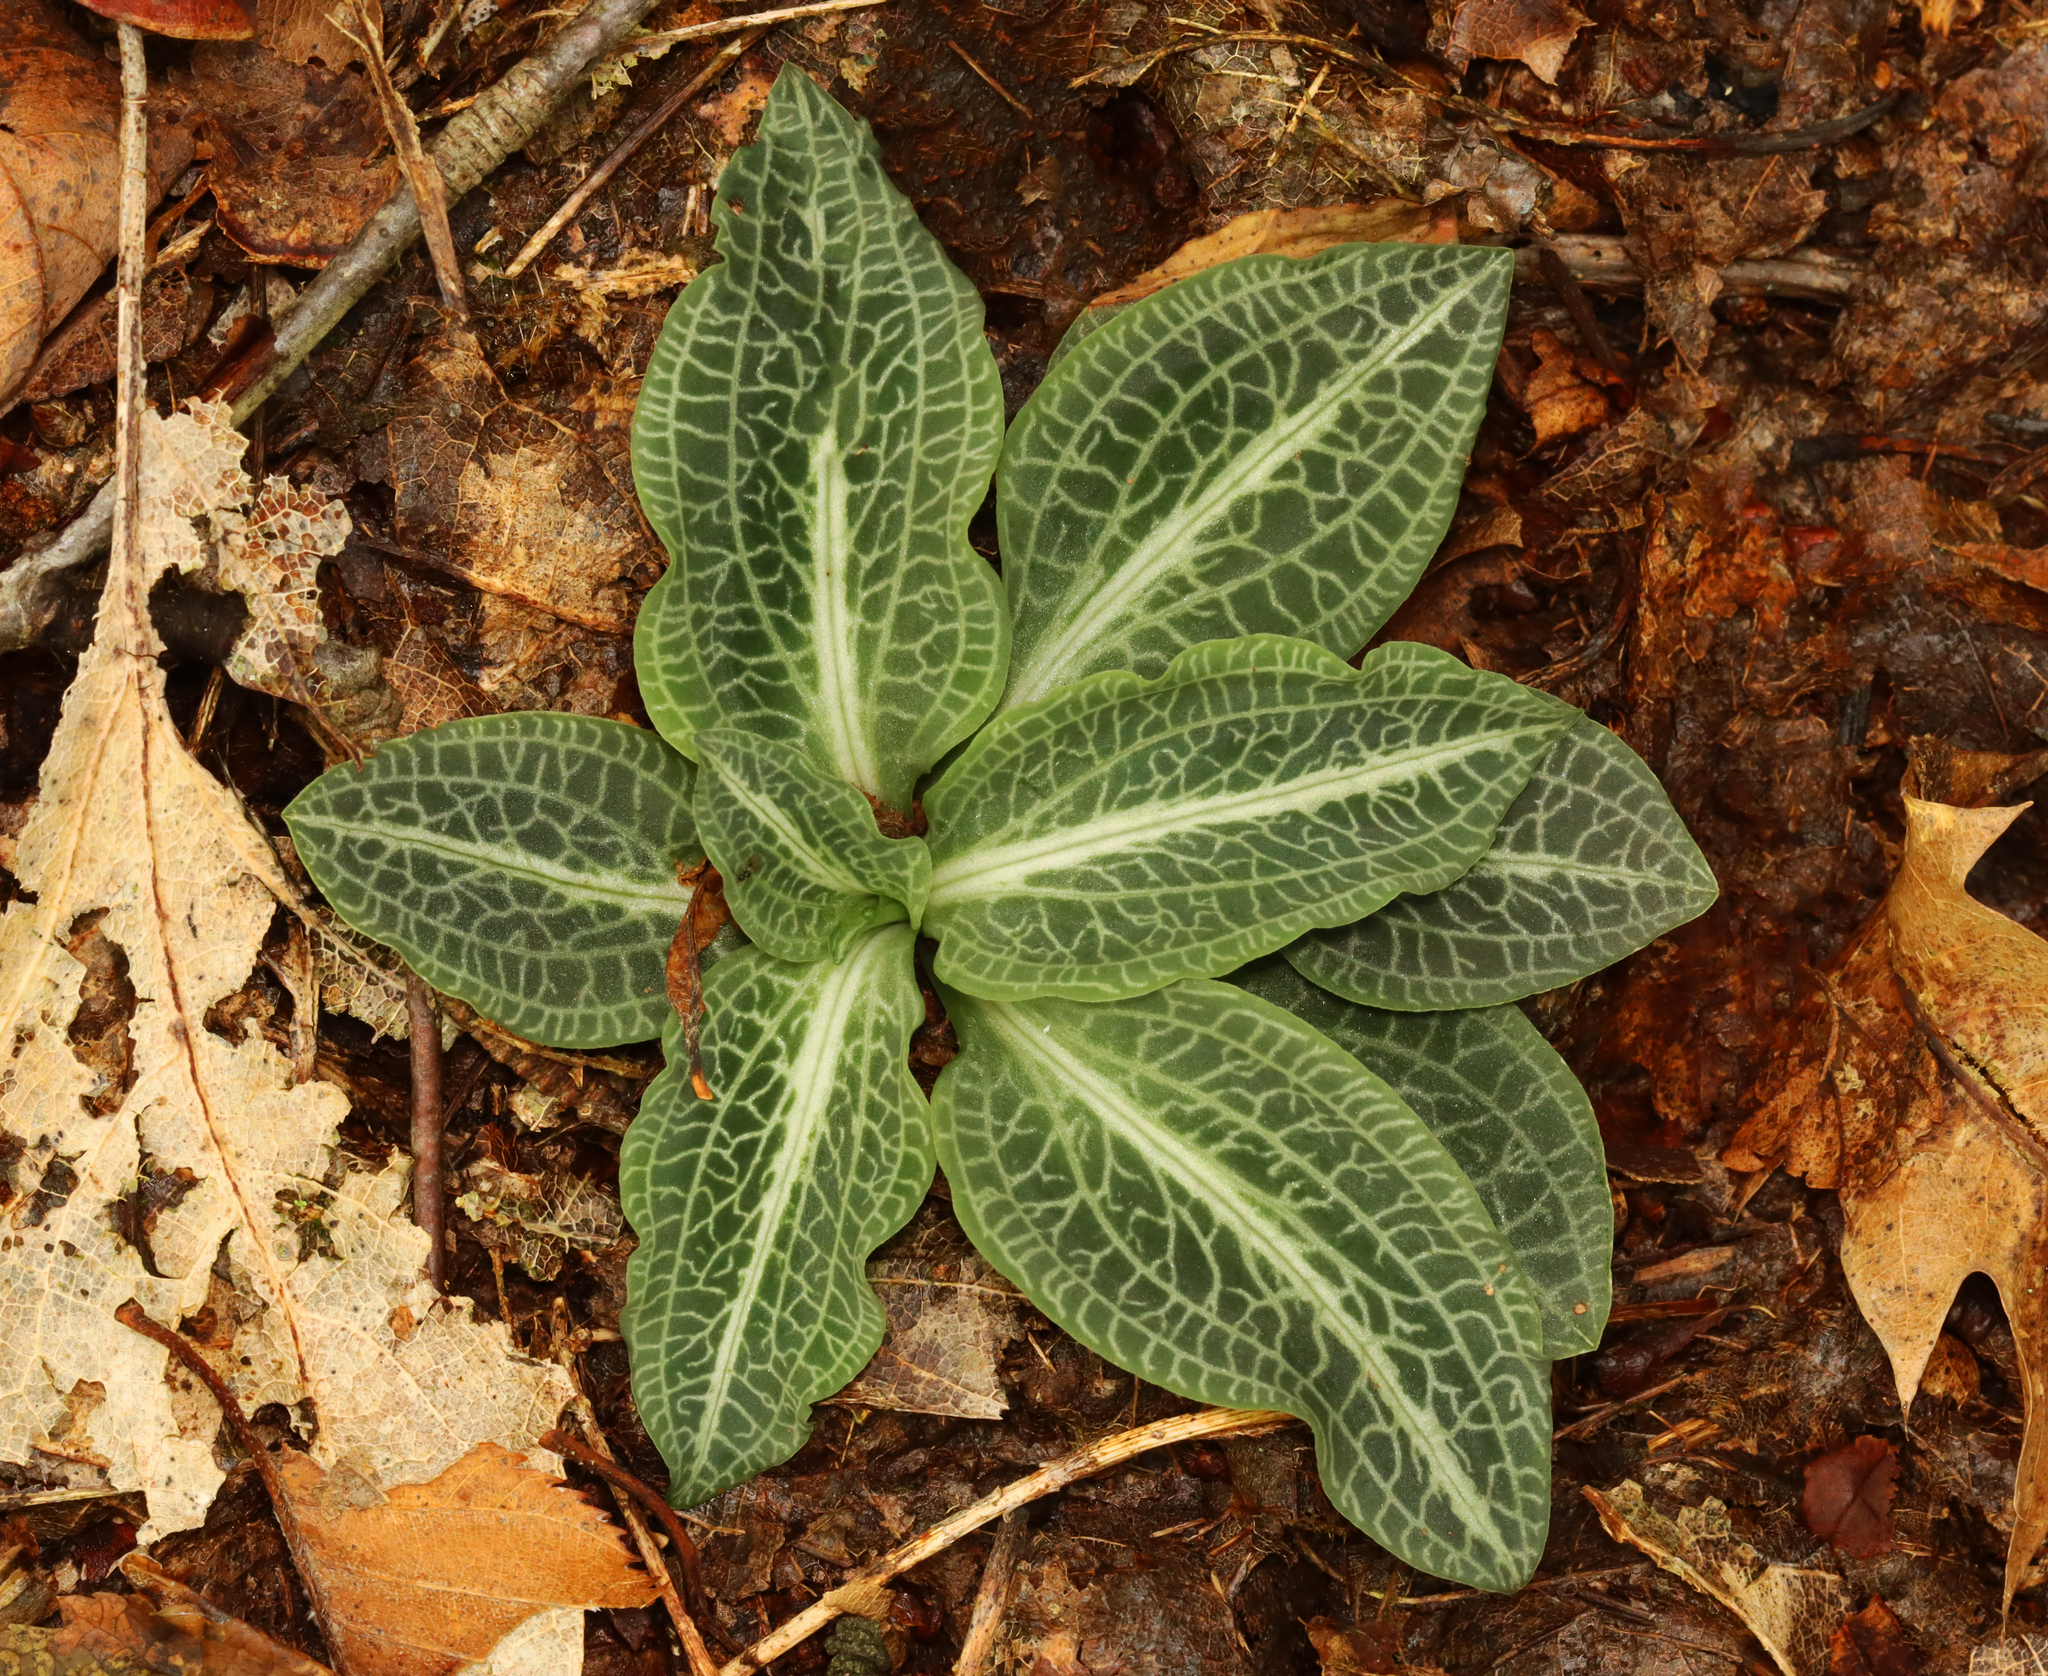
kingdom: Plantae
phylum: Tracheophyta
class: Liliopsida
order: Asparagales
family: Orchidaceae
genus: Goodyera
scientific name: Goodyera pubescens
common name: Downy rattlesnake-plantain
